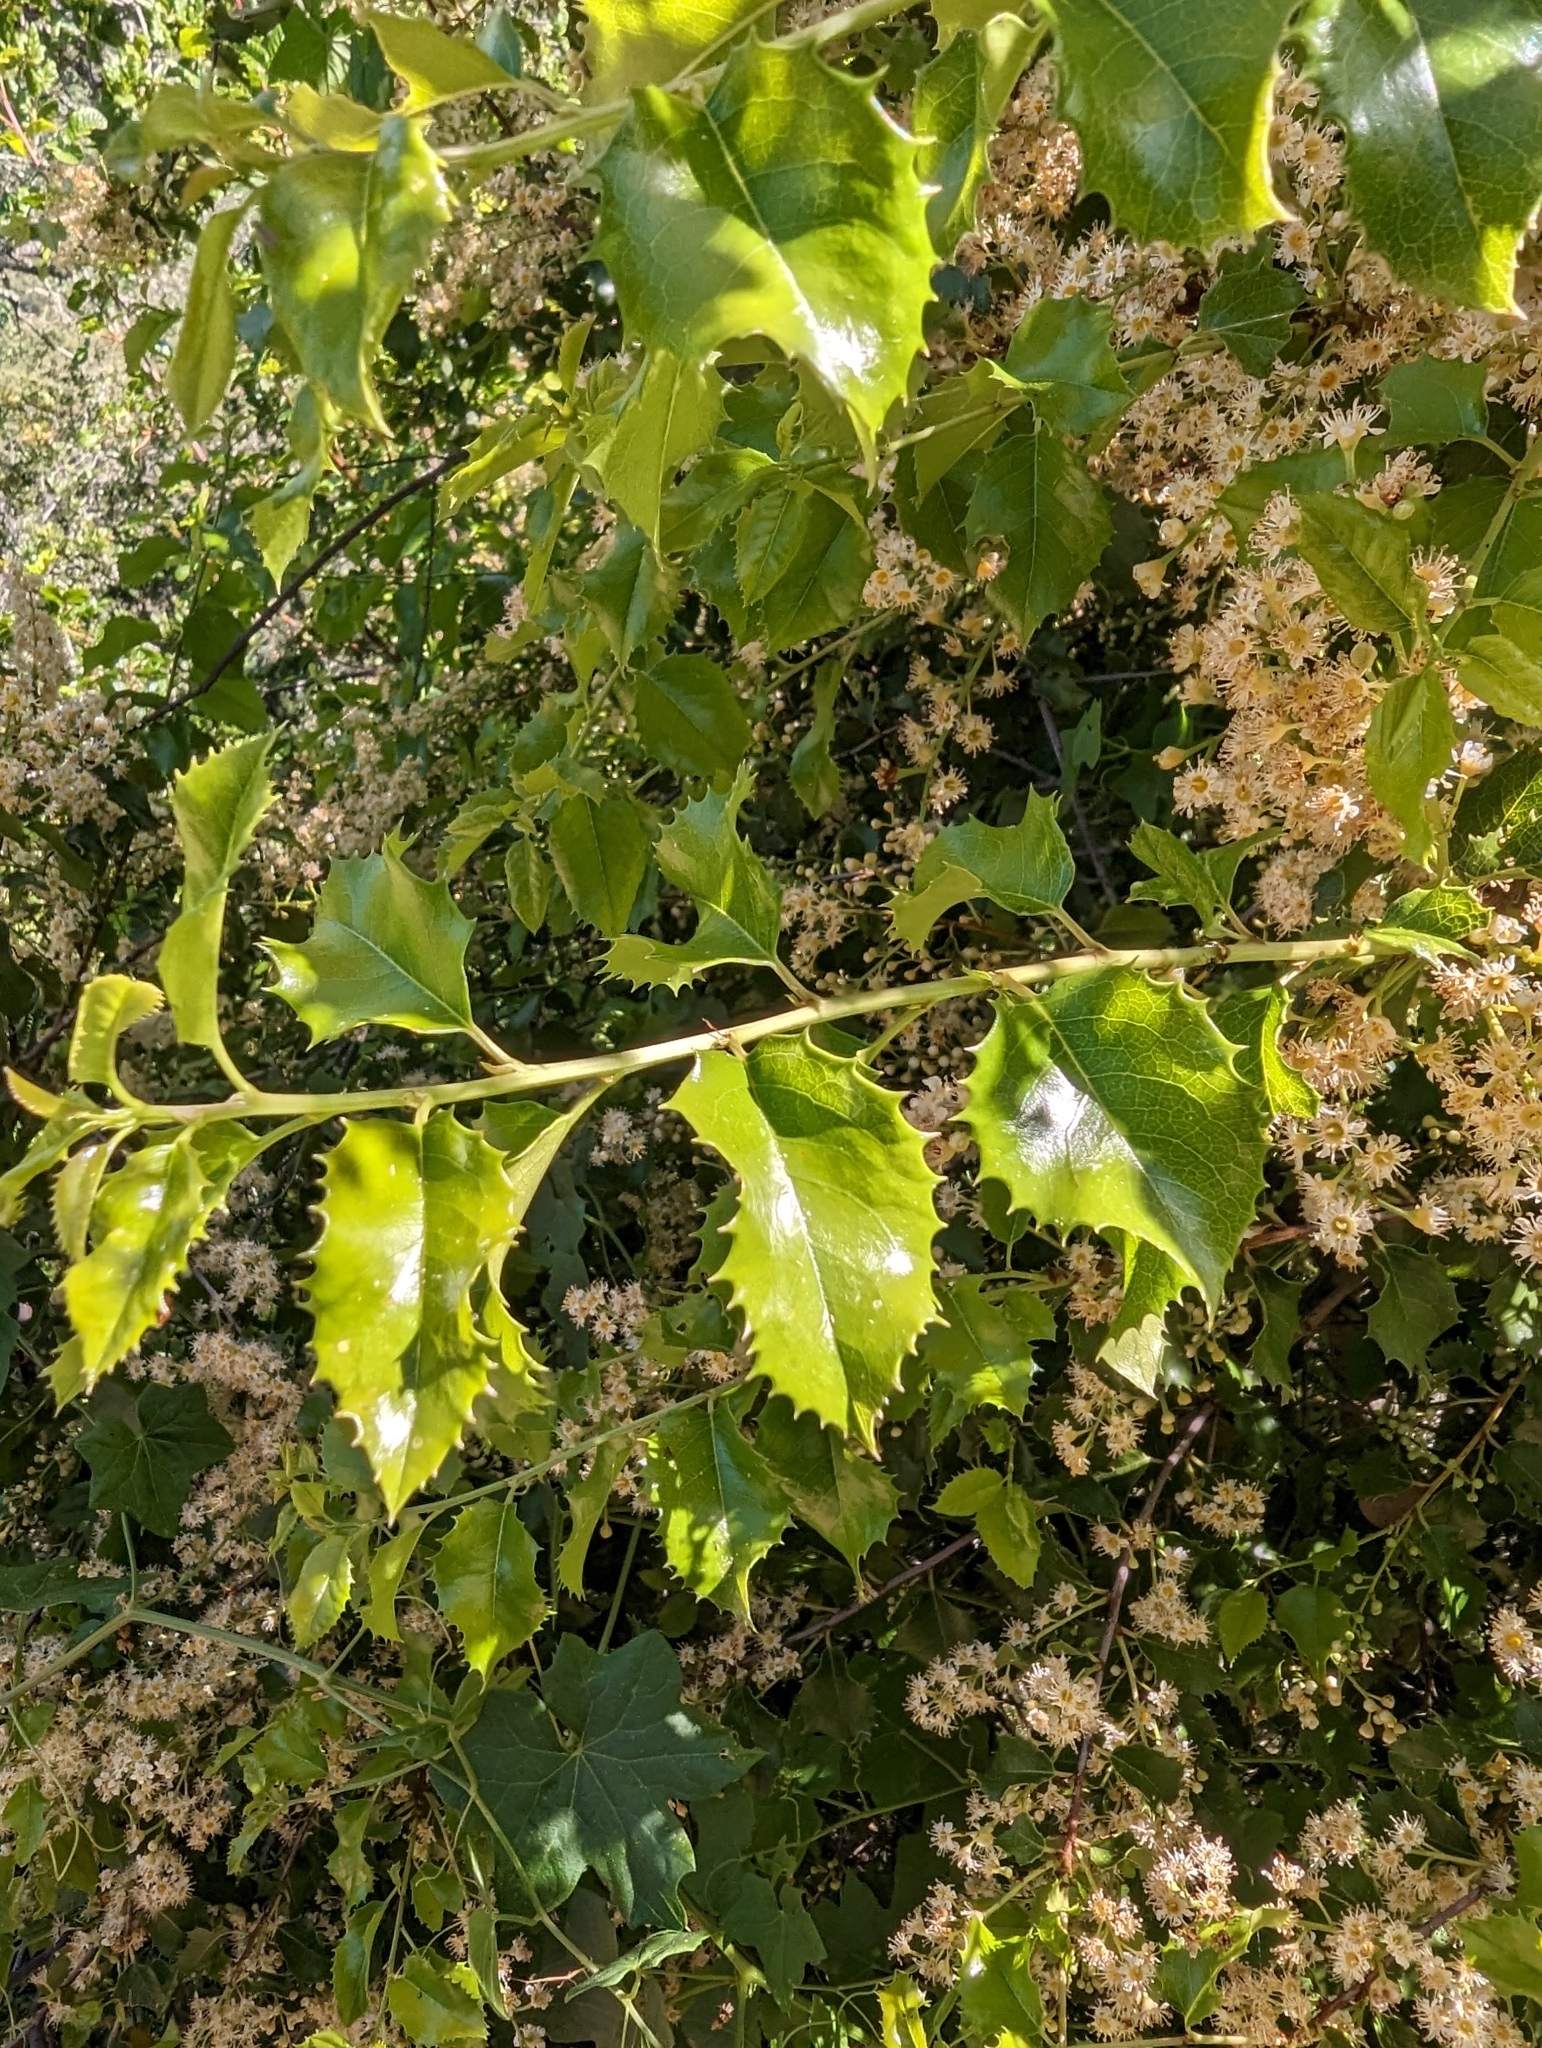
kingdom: Plantae
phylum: Tracheophyta
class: Magnoliopsida
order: Rosales
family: Rosaceae
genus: Prunus
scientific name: Prunus ilicifolia
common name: Hollyleaf cherry
